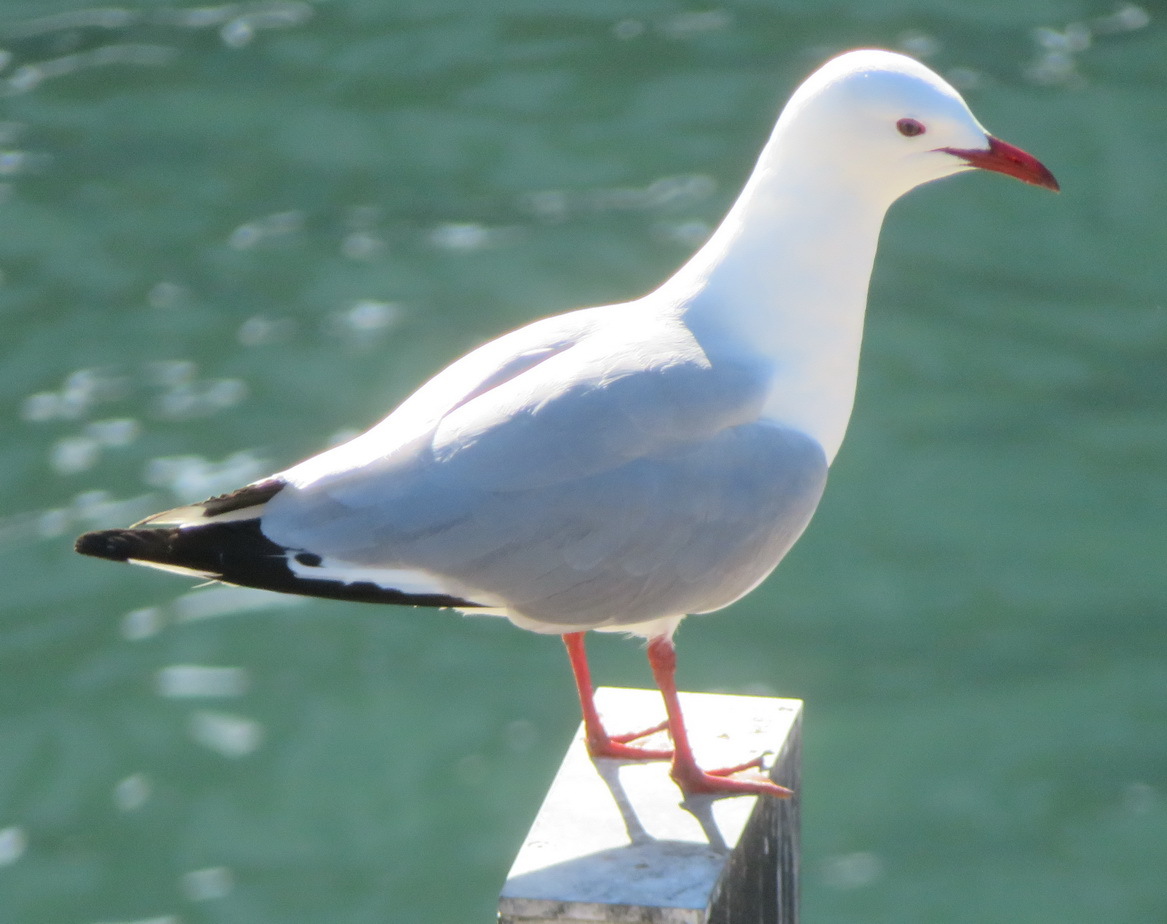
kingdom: Animalia
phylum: Chordata
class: Aves
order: Charadriiformes
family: Laridae
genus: Chroicocephalus
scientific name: Chroicocephalus hartlaubii
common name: Hartlaub's gull
